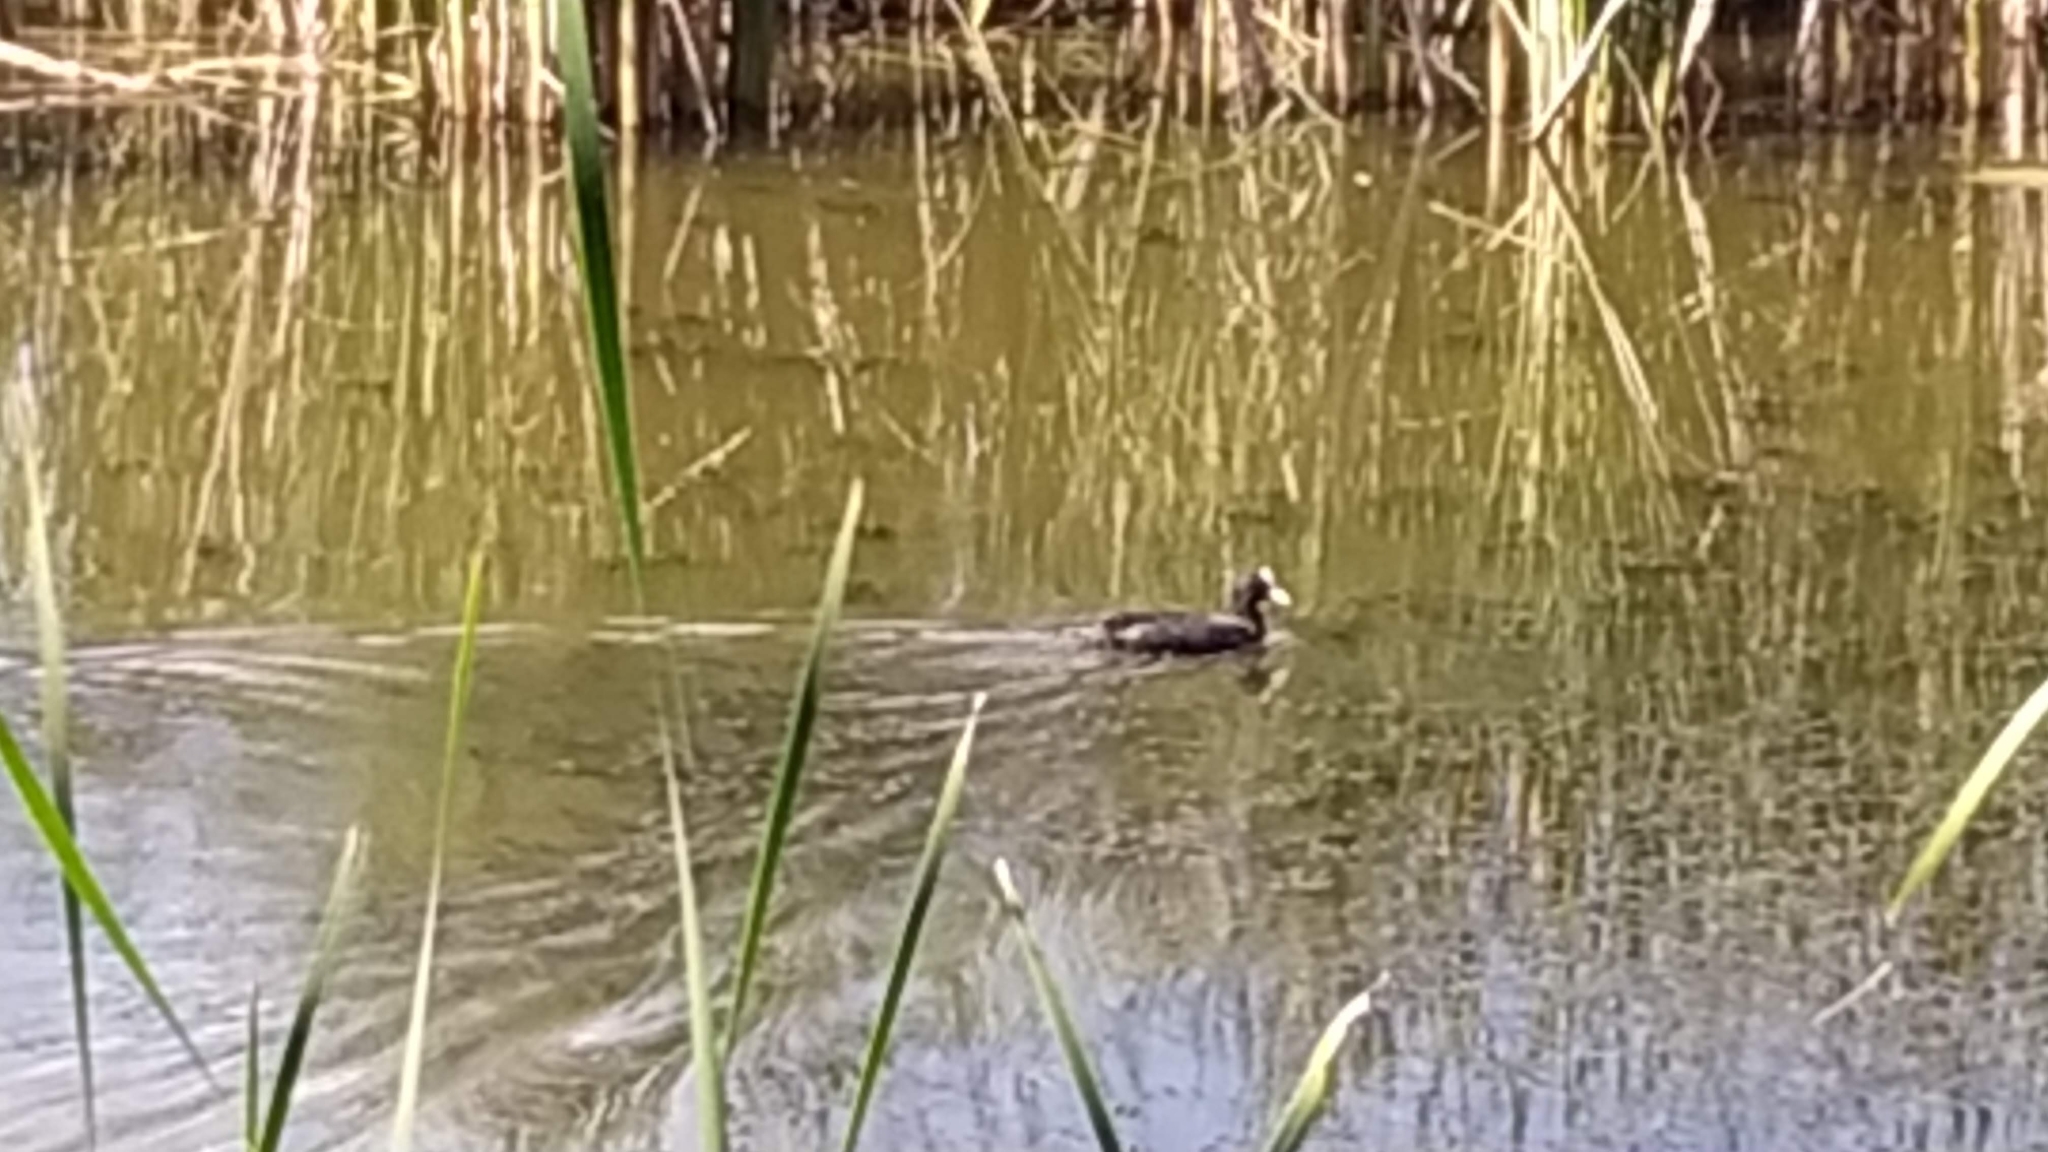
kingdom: Animalia
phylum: Chordata
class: Aves
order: Gruiformes
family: Rallidae
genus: Fulica
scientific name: Fulica atra
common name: Eurasian coot
